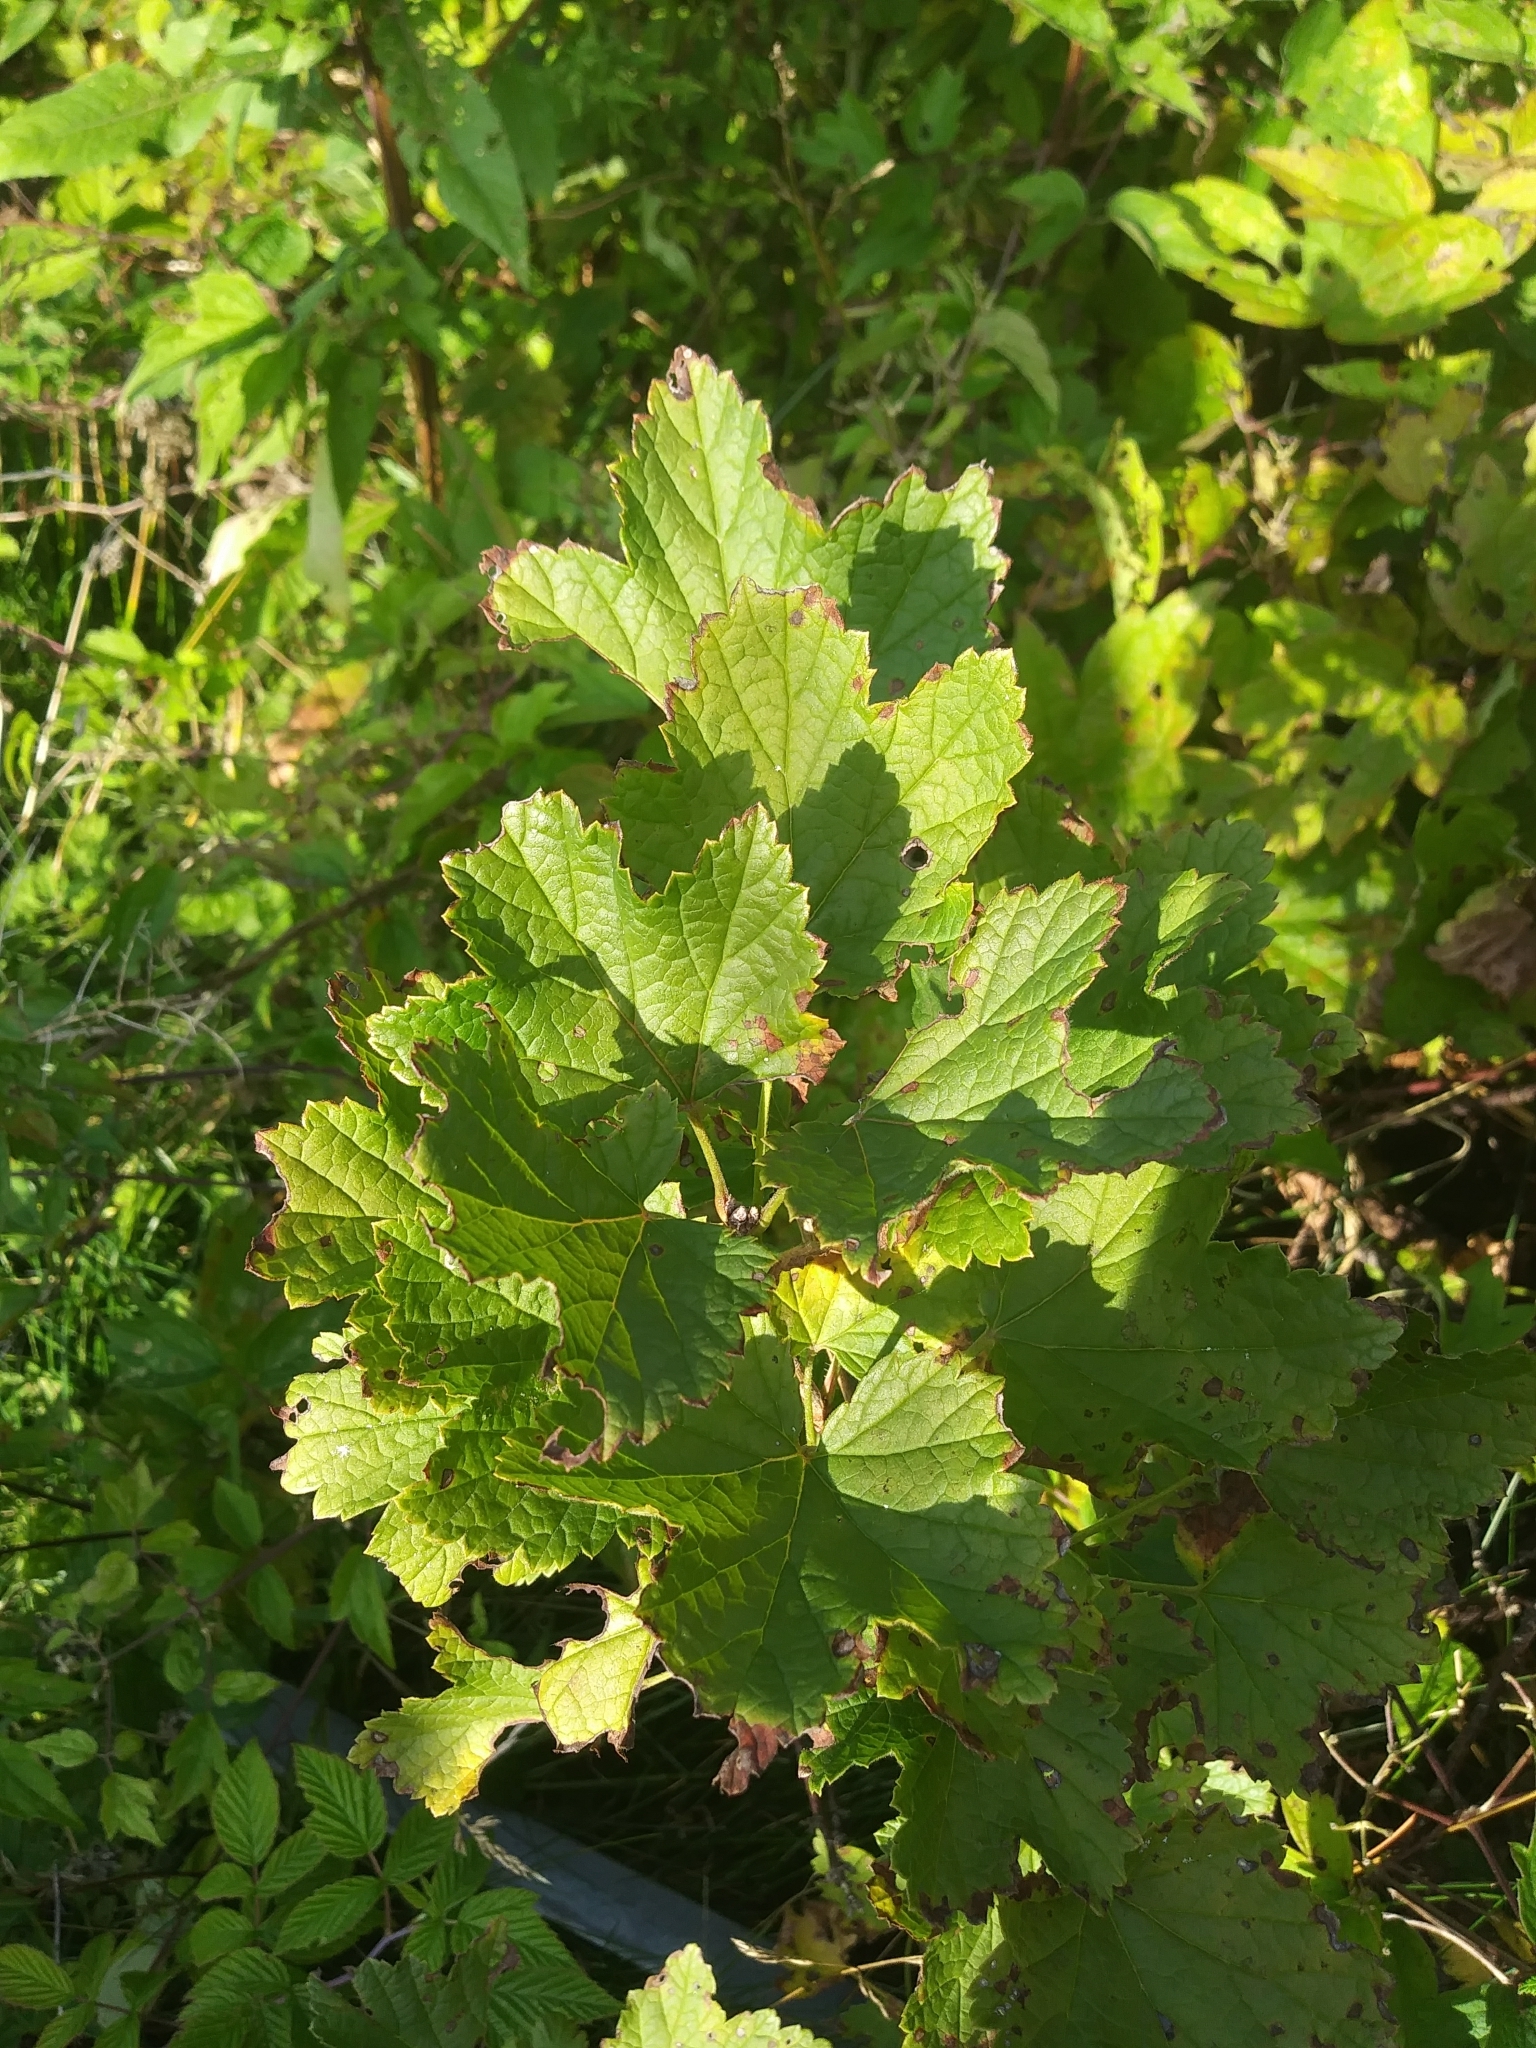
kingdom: Plantae
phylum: Tracheophyta
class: Magnoliopsida
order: Saxifragales
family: Grossulariaceae
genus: Ribes
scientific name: Ribes rubrum
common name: Red currant
